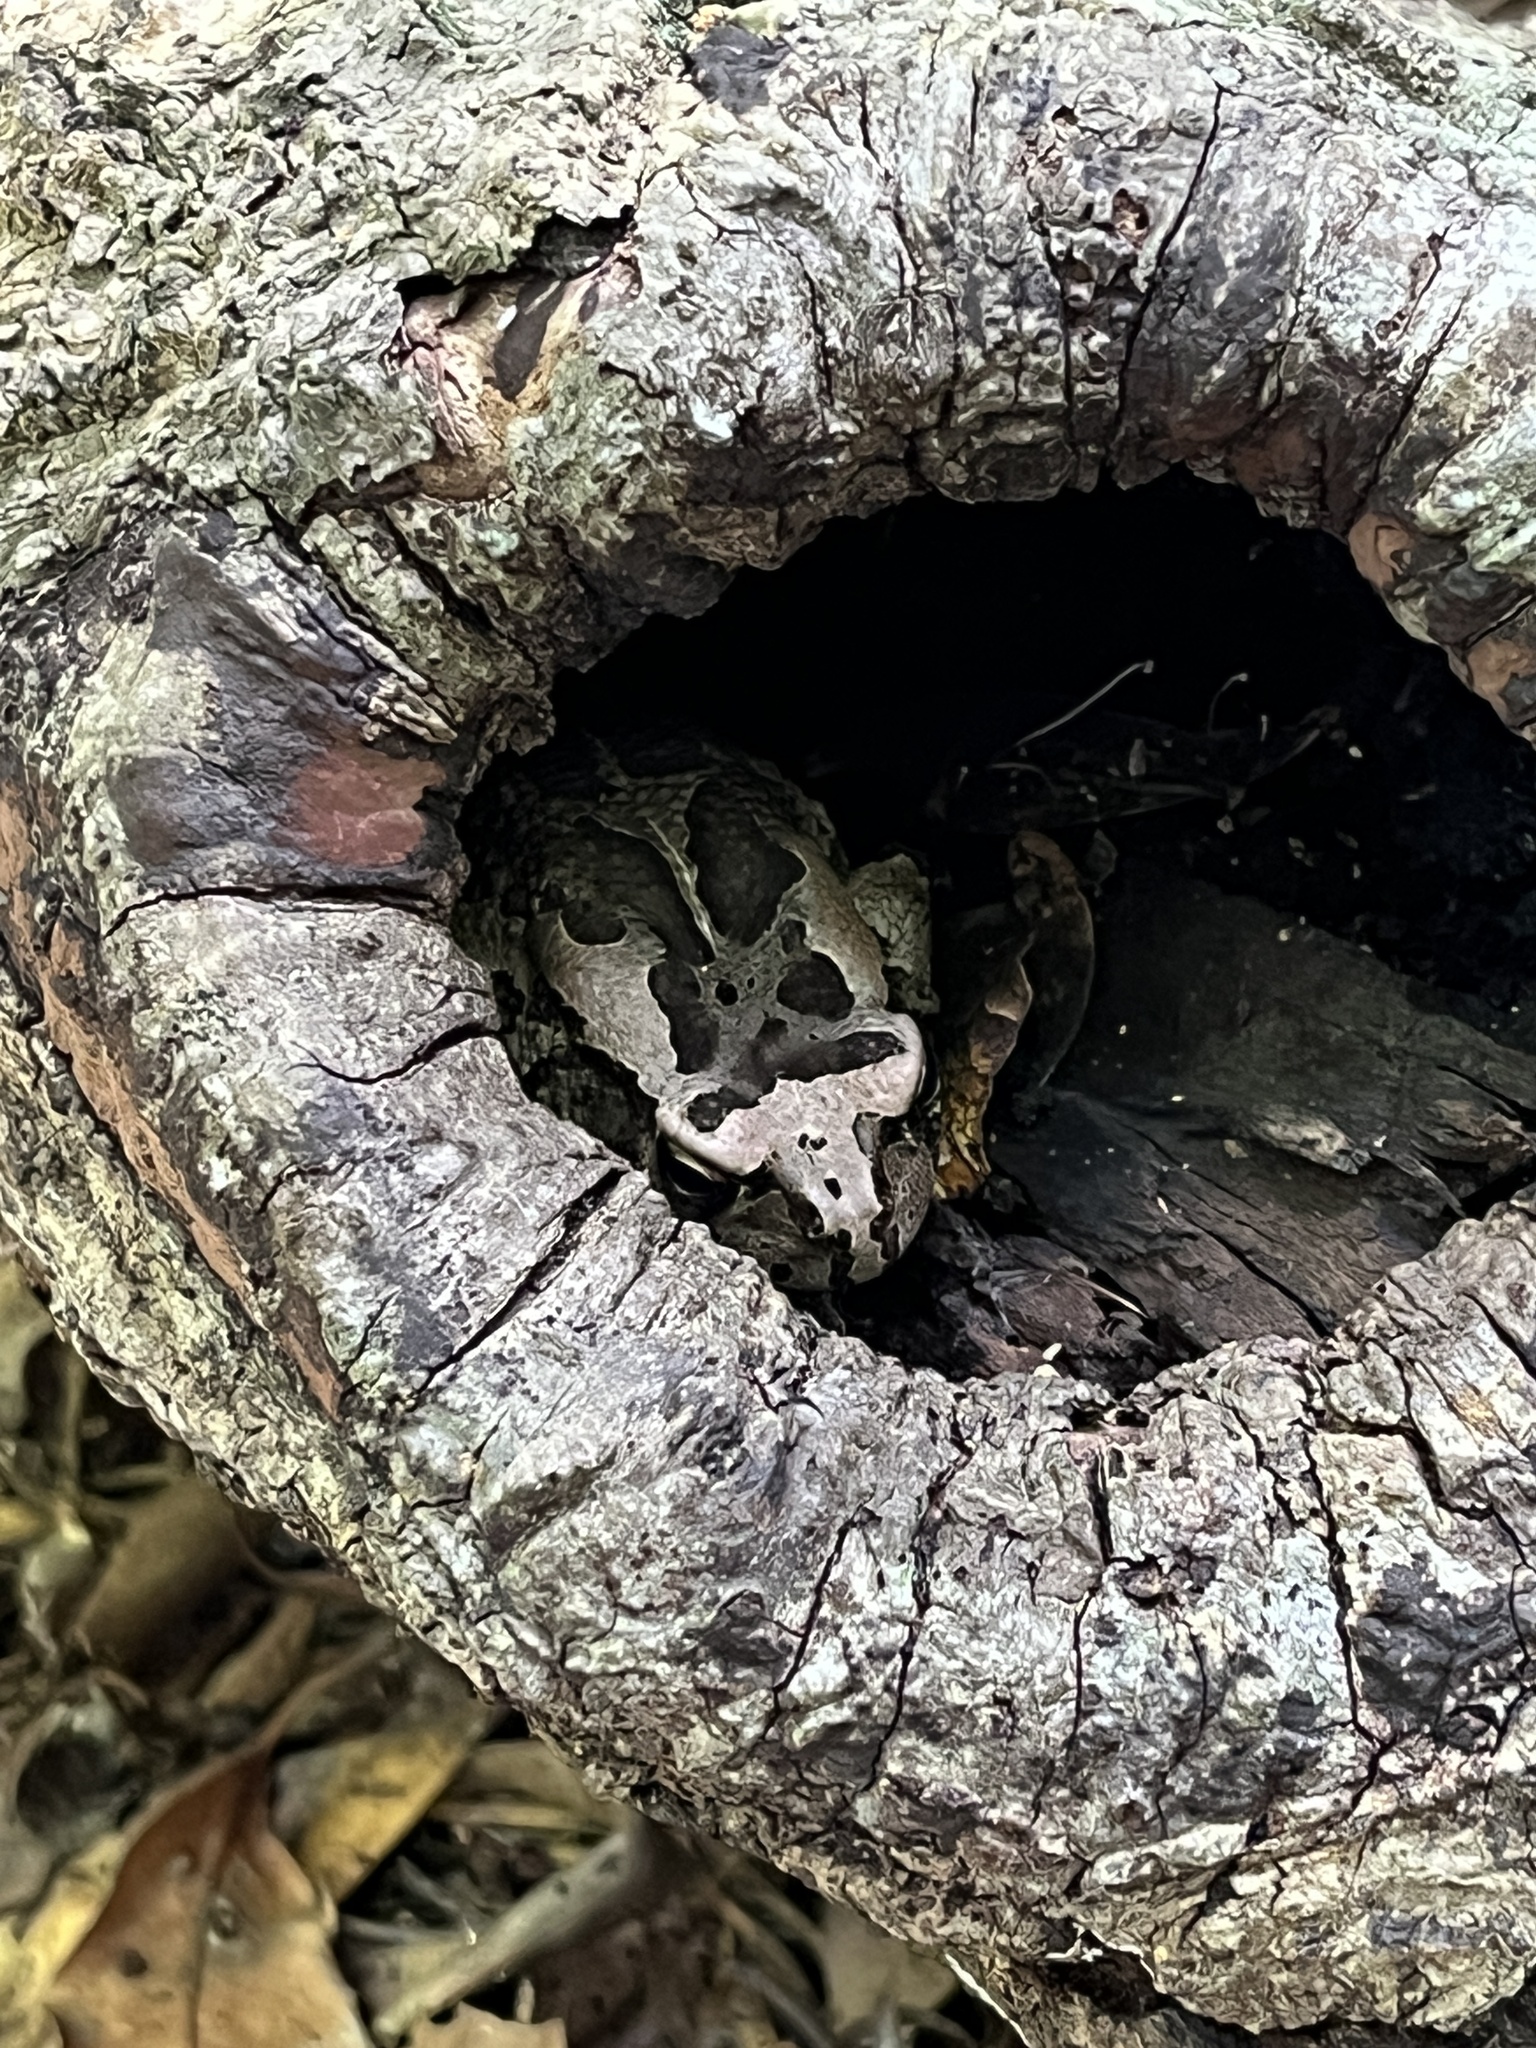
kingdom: Animalia
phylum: Chordata
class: Amphibia
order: Anura
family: Bufonidae
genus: Sclerophrys
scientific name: Sclerophrys capensis
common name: Ranger’s toad
